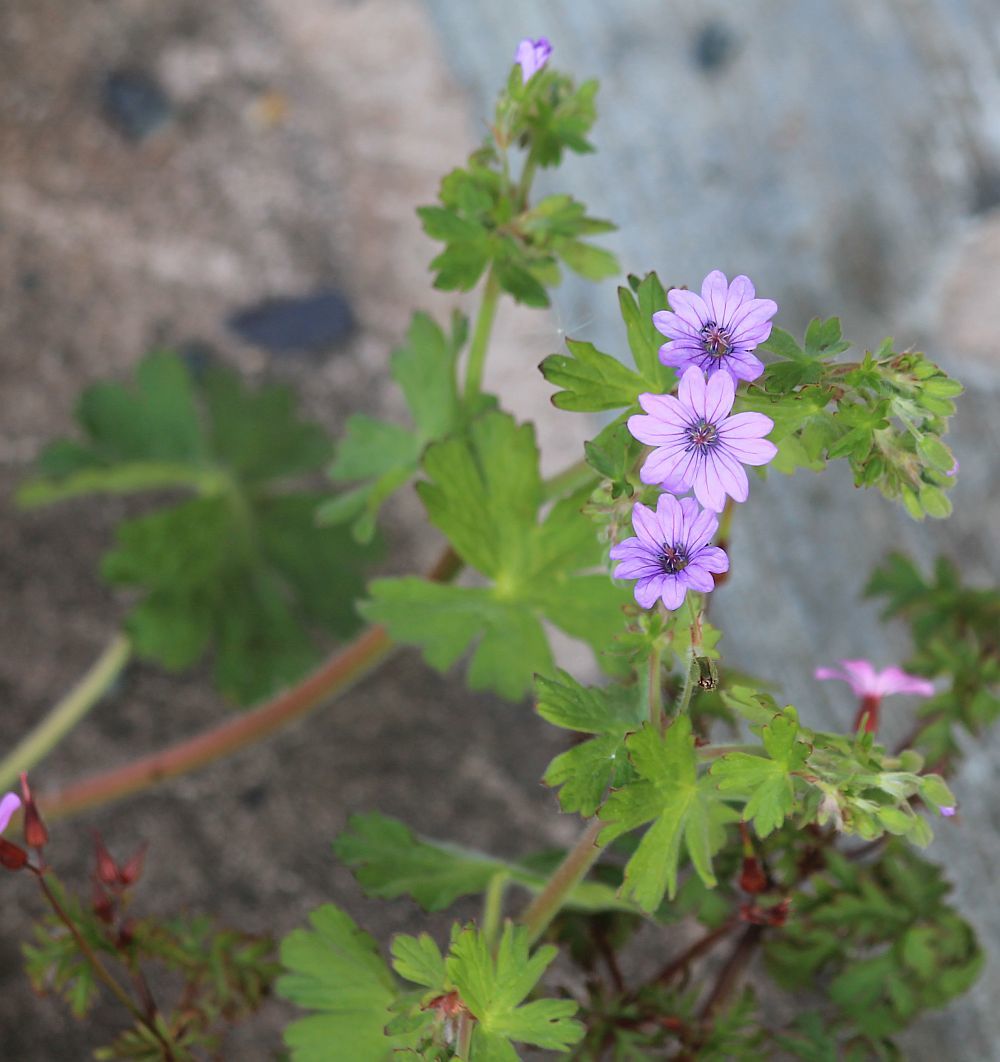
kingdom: Plantae
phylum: Tracheophyta
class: Magnoliopsida
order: Geraniales
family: Geraniaceae
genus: Geranium
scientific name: Geranium molle
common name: Dove's-foot crane's-bill
